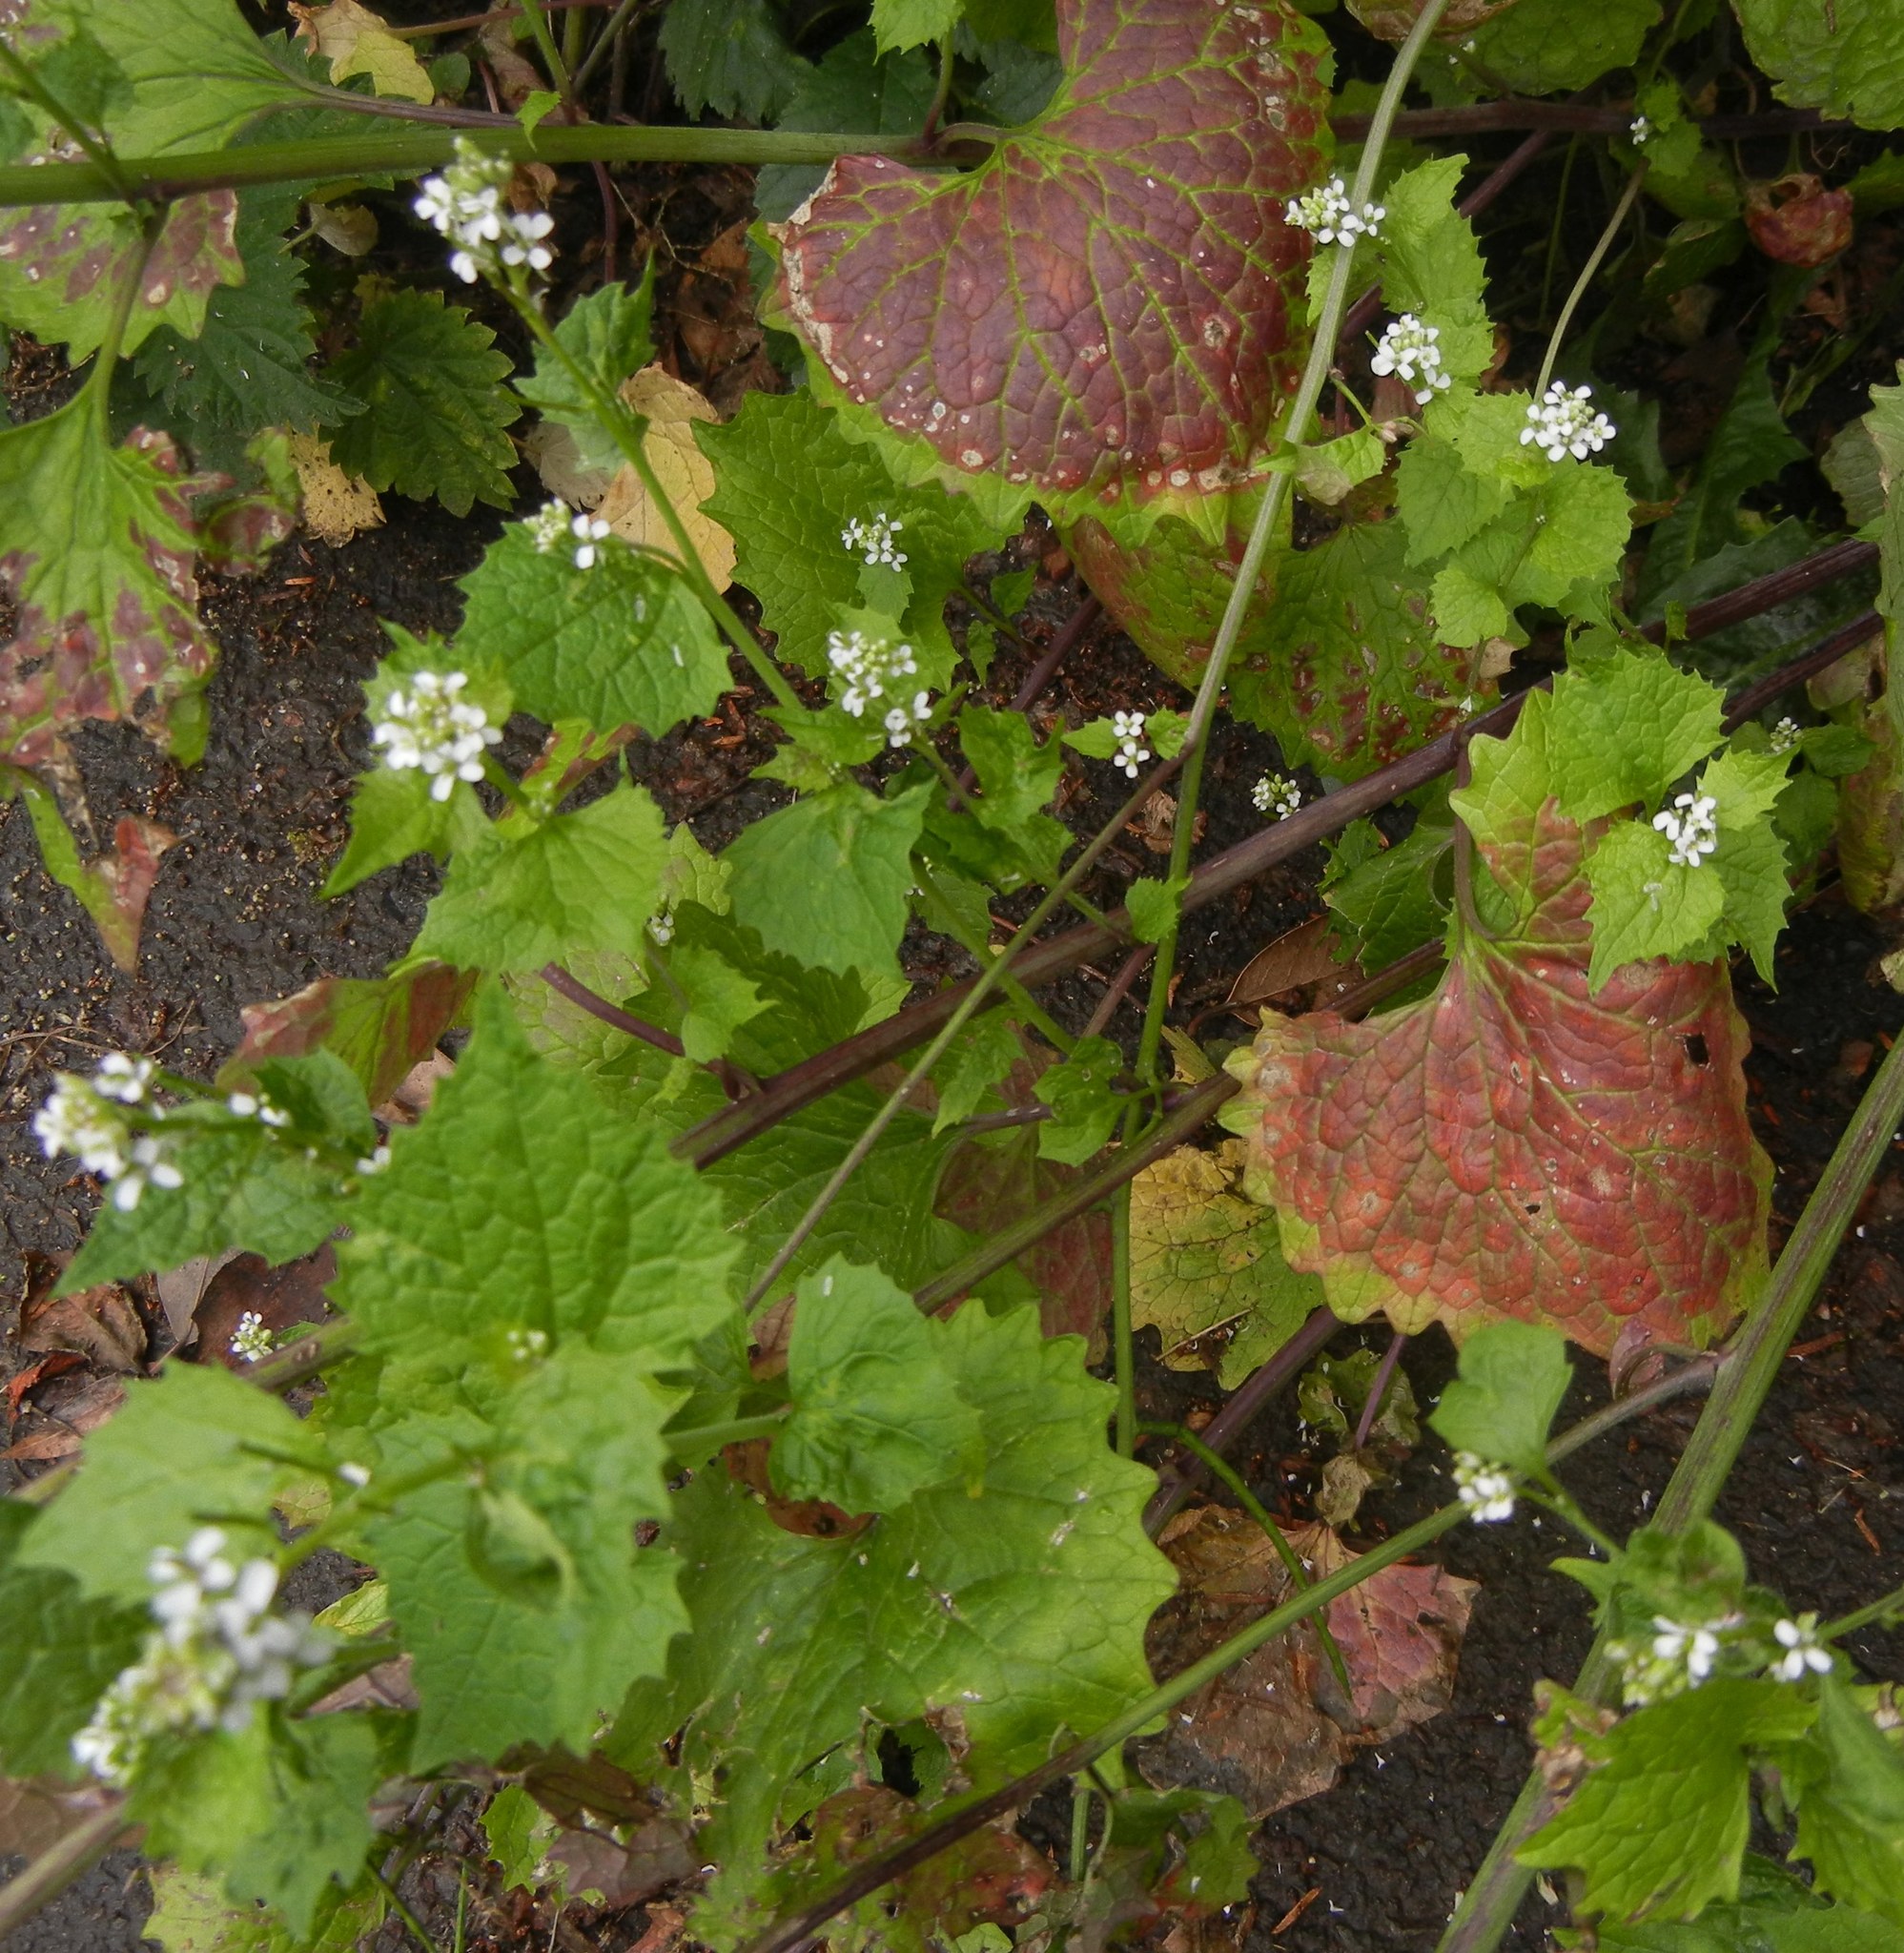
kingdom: Plantae
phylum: Tracheophyta
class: Magnoliopsida
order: Brassicales
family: Brassicaceae
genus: Alliaria
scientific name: Alliaria petiolata
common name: Garlic mustard
